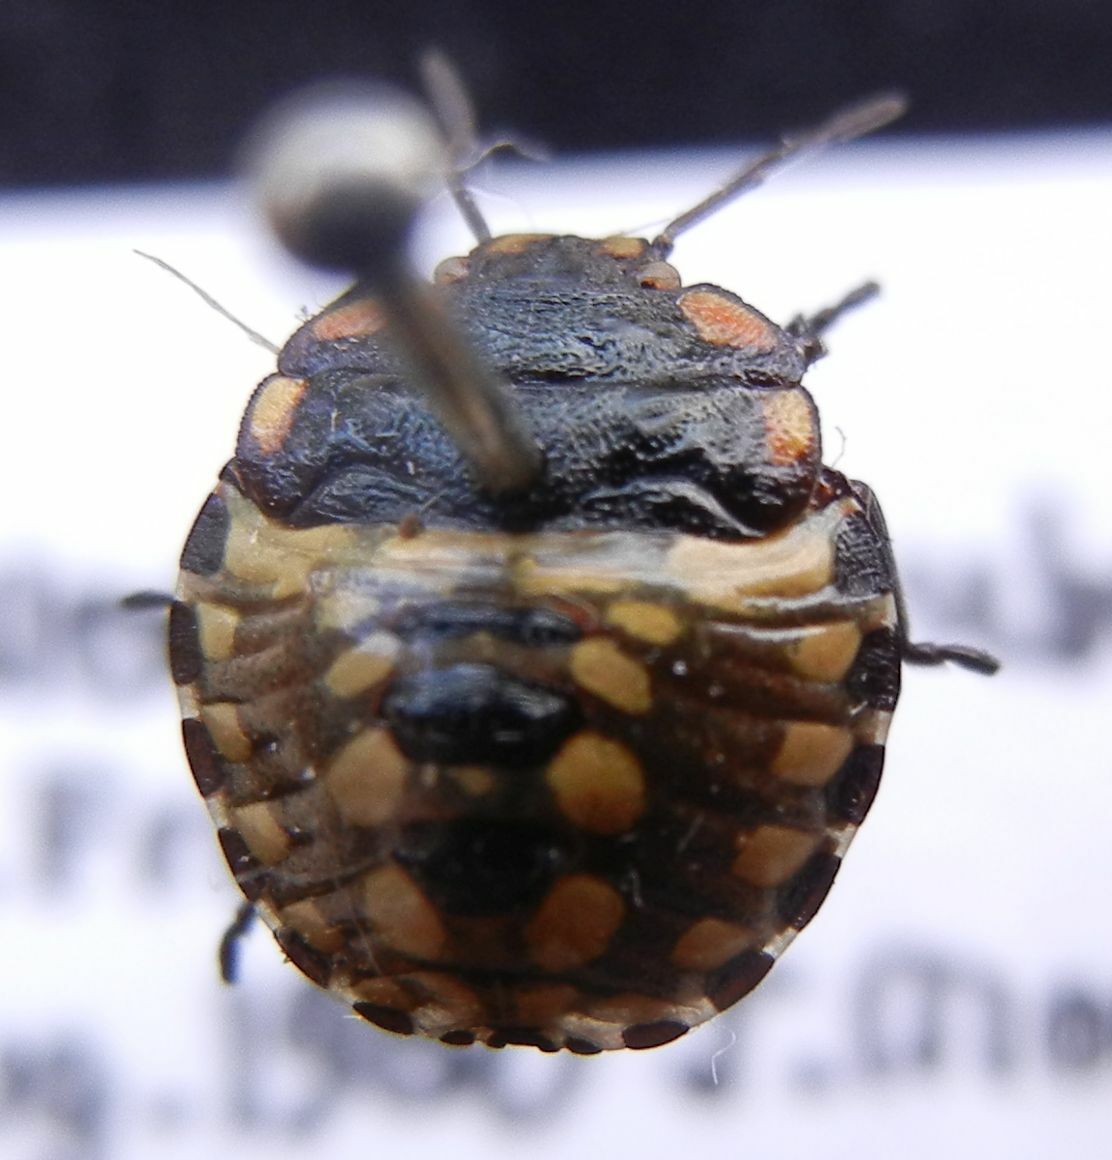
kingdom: Animalia
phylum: Arthropoda
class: Insecta
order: Hemiptera
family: Pentatomidae
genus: Nezara
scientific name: Nezara viridula
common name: Southern green stink bug
